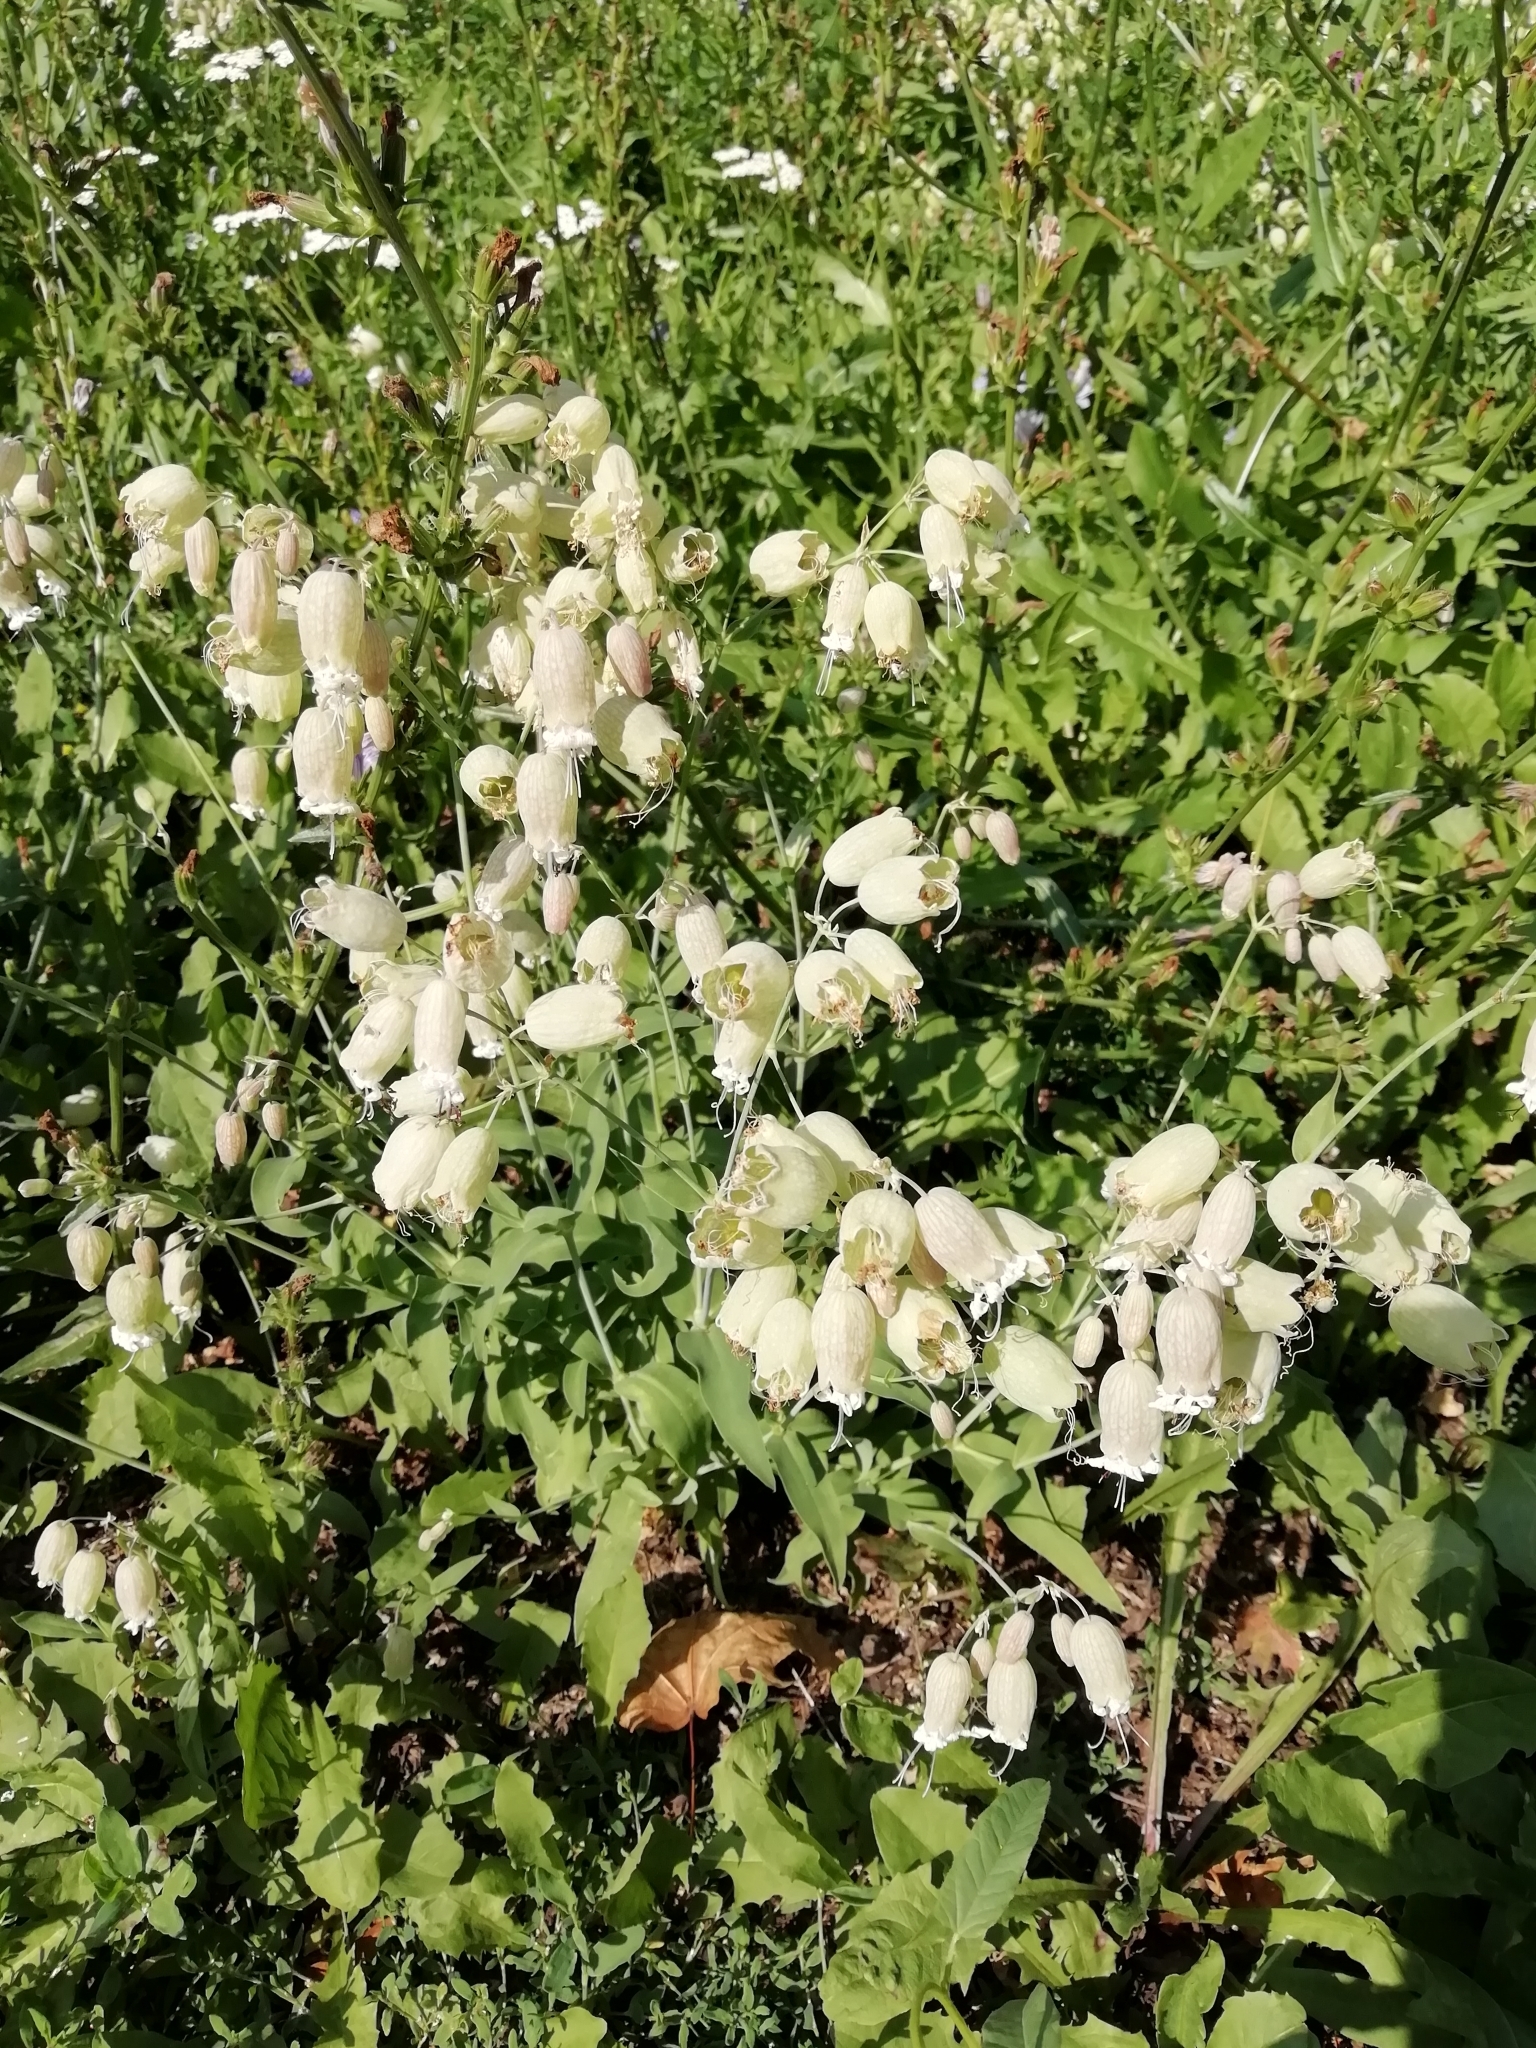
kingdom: Plantae
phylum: Tracheophyta
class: Magnoliopsida
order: Caryophyllales
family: Caryophyllaceae
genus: Silene
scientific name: Silene vulgaris
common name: Bladder campion
